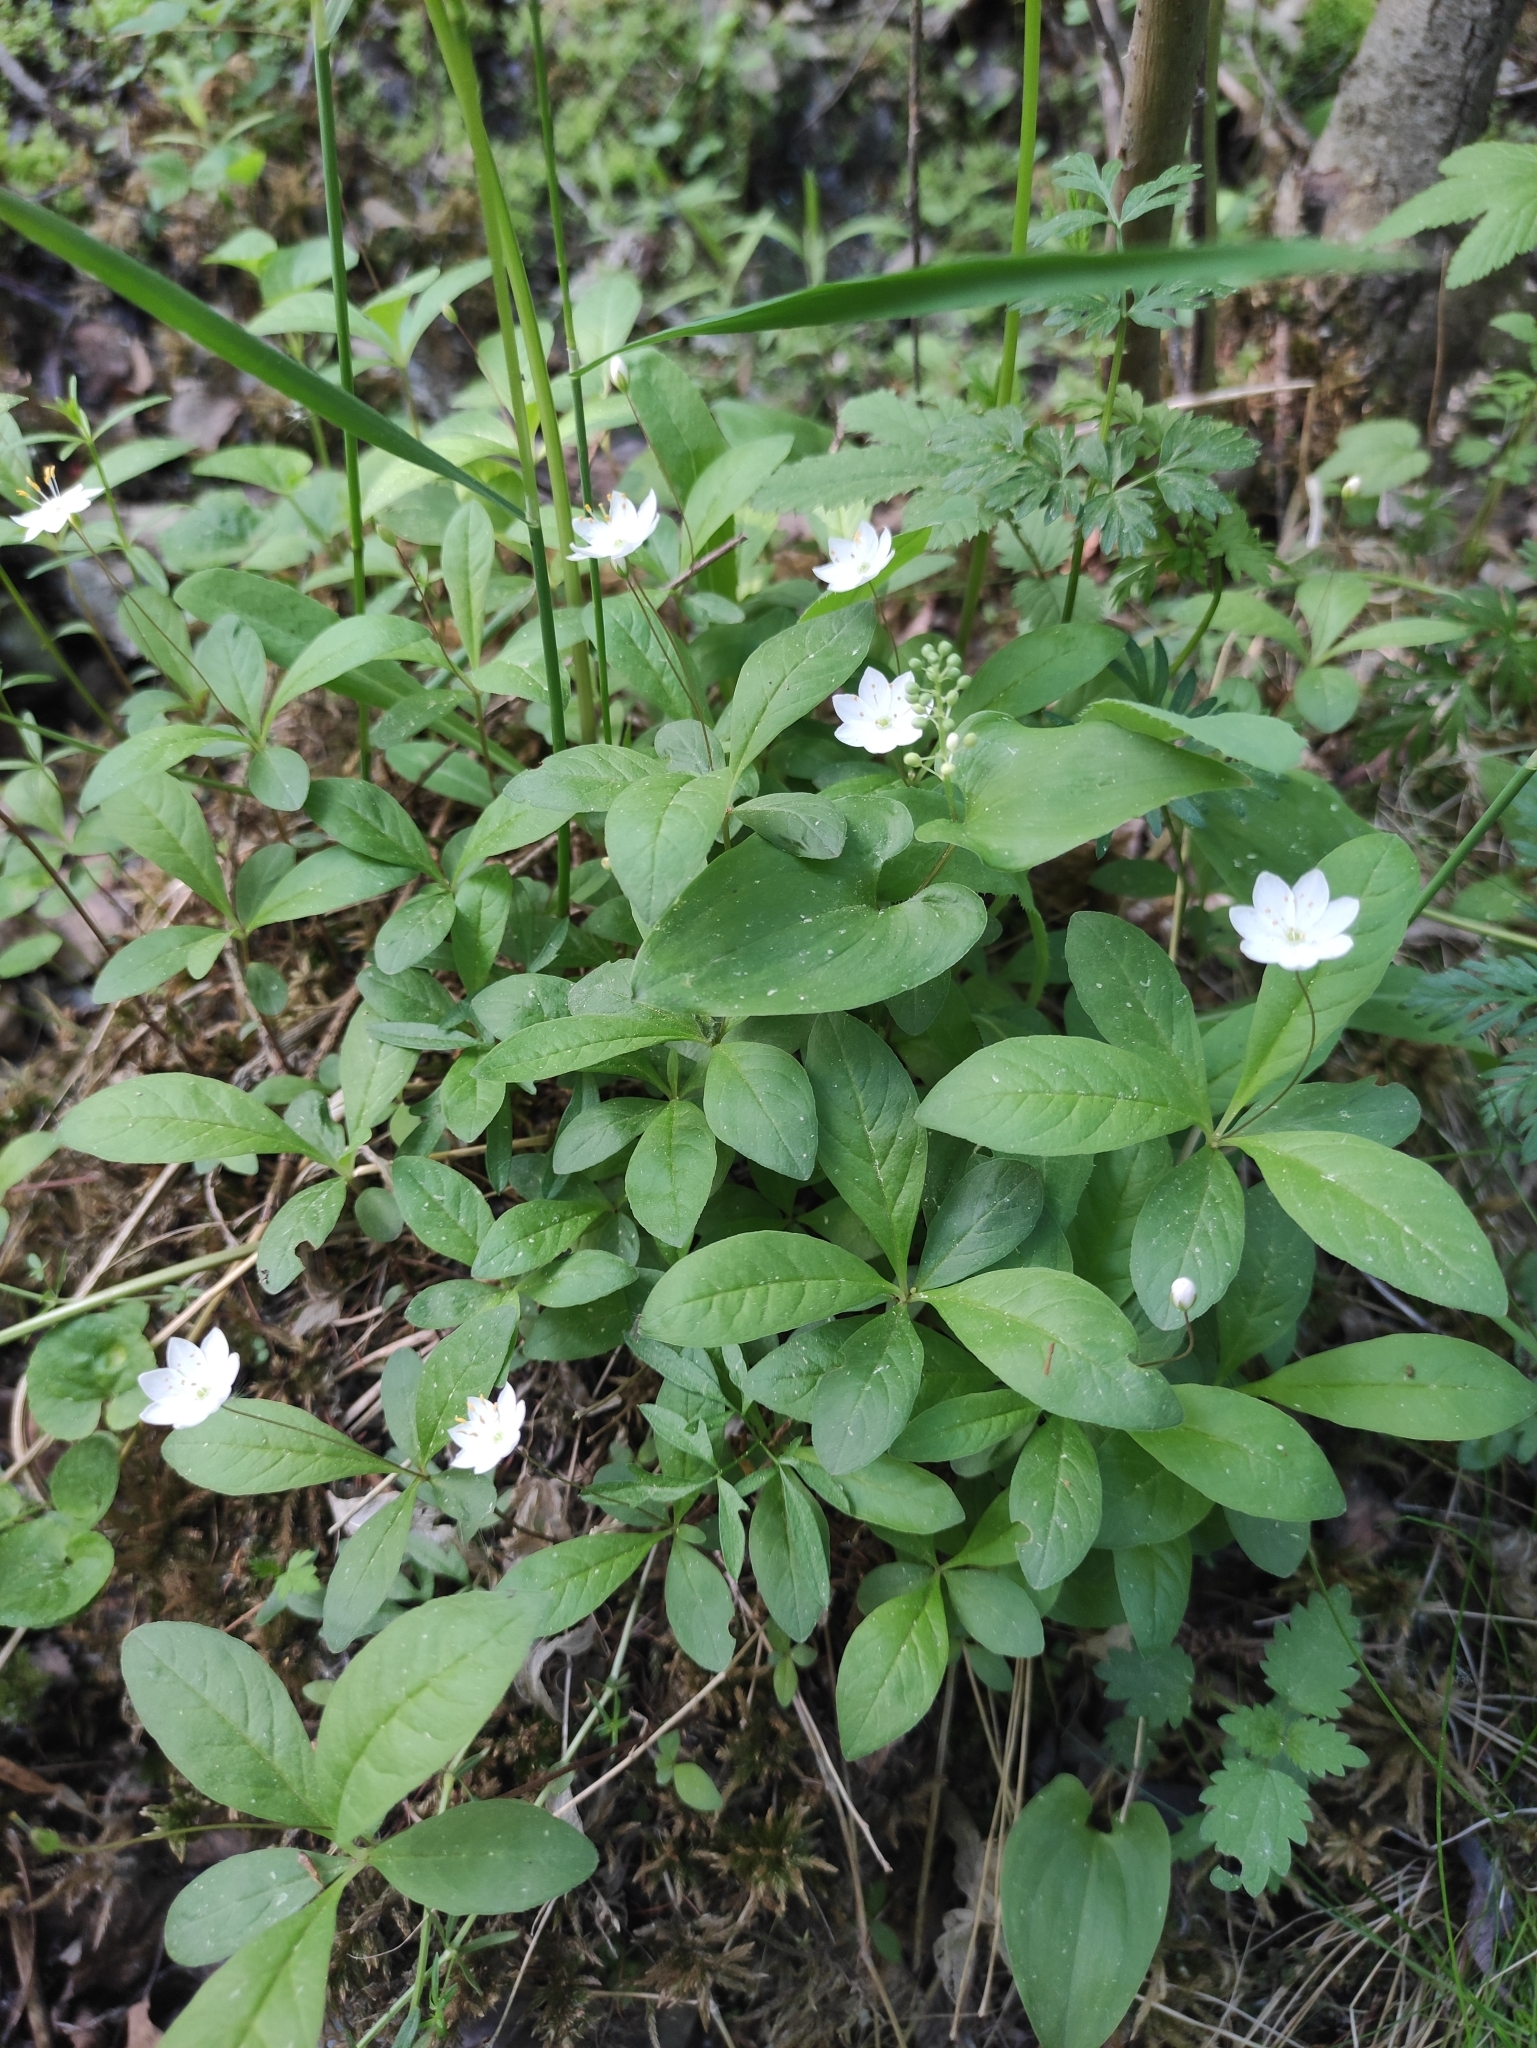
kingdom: Plantae
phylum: Tracheophyta
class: Magnoliopsida
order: Ericales
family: Primulaceae
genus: Lysimachia
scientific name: Lysimachia europaea
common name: Arctic starflower
